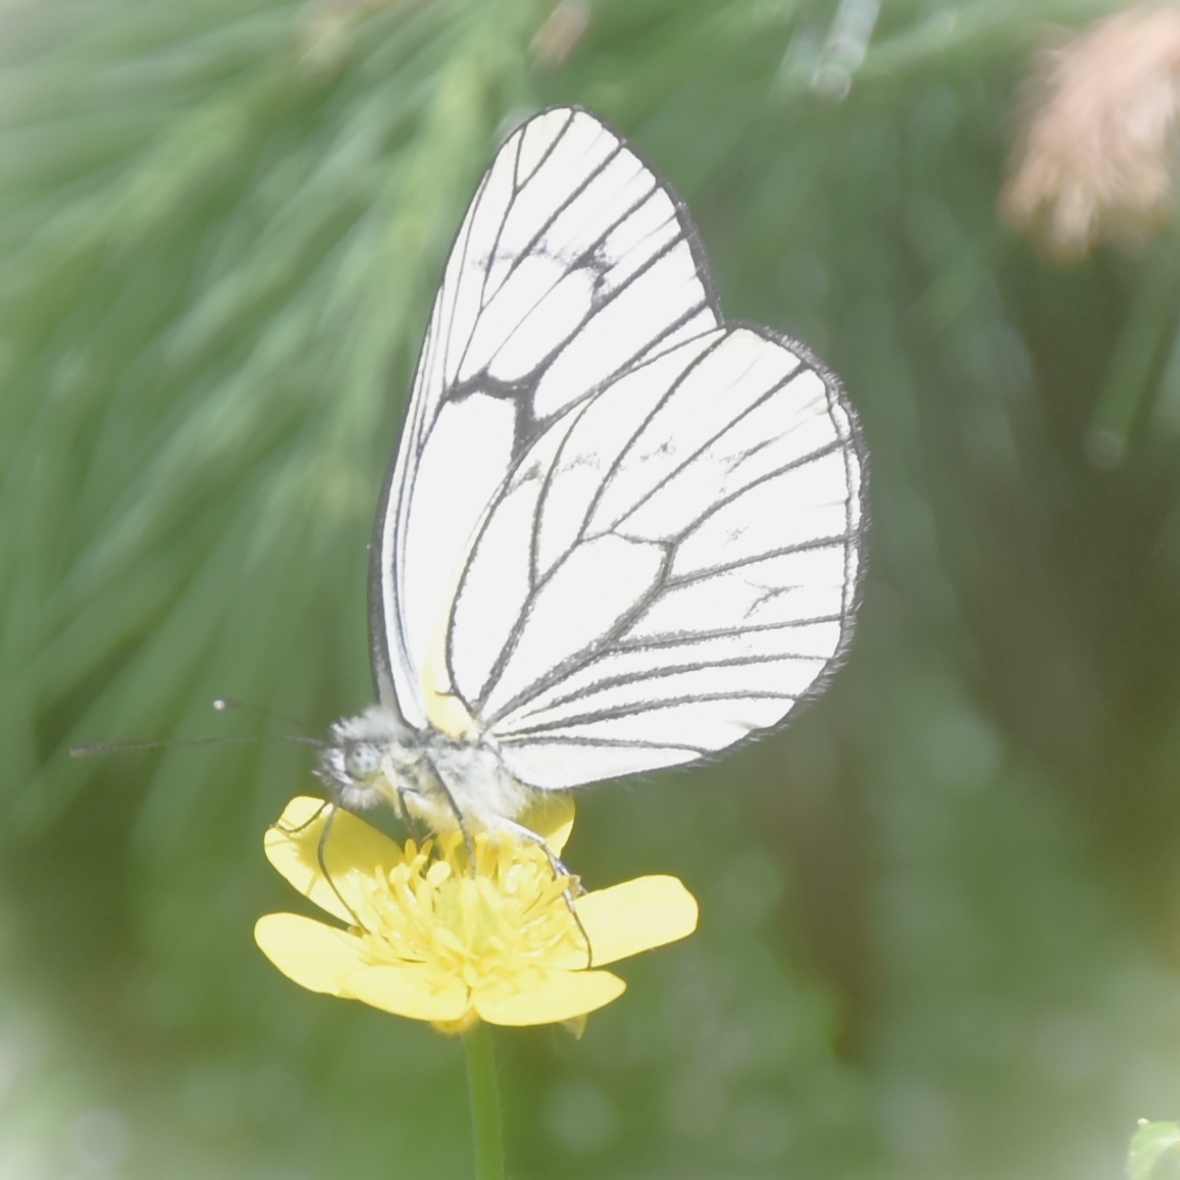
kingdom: Animalia
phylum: Arthropoda
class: Insecta
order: Lepidoptera
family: Pieridae
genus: Aporia
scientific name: Aporia leucodice
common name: Himalayan blackvein
